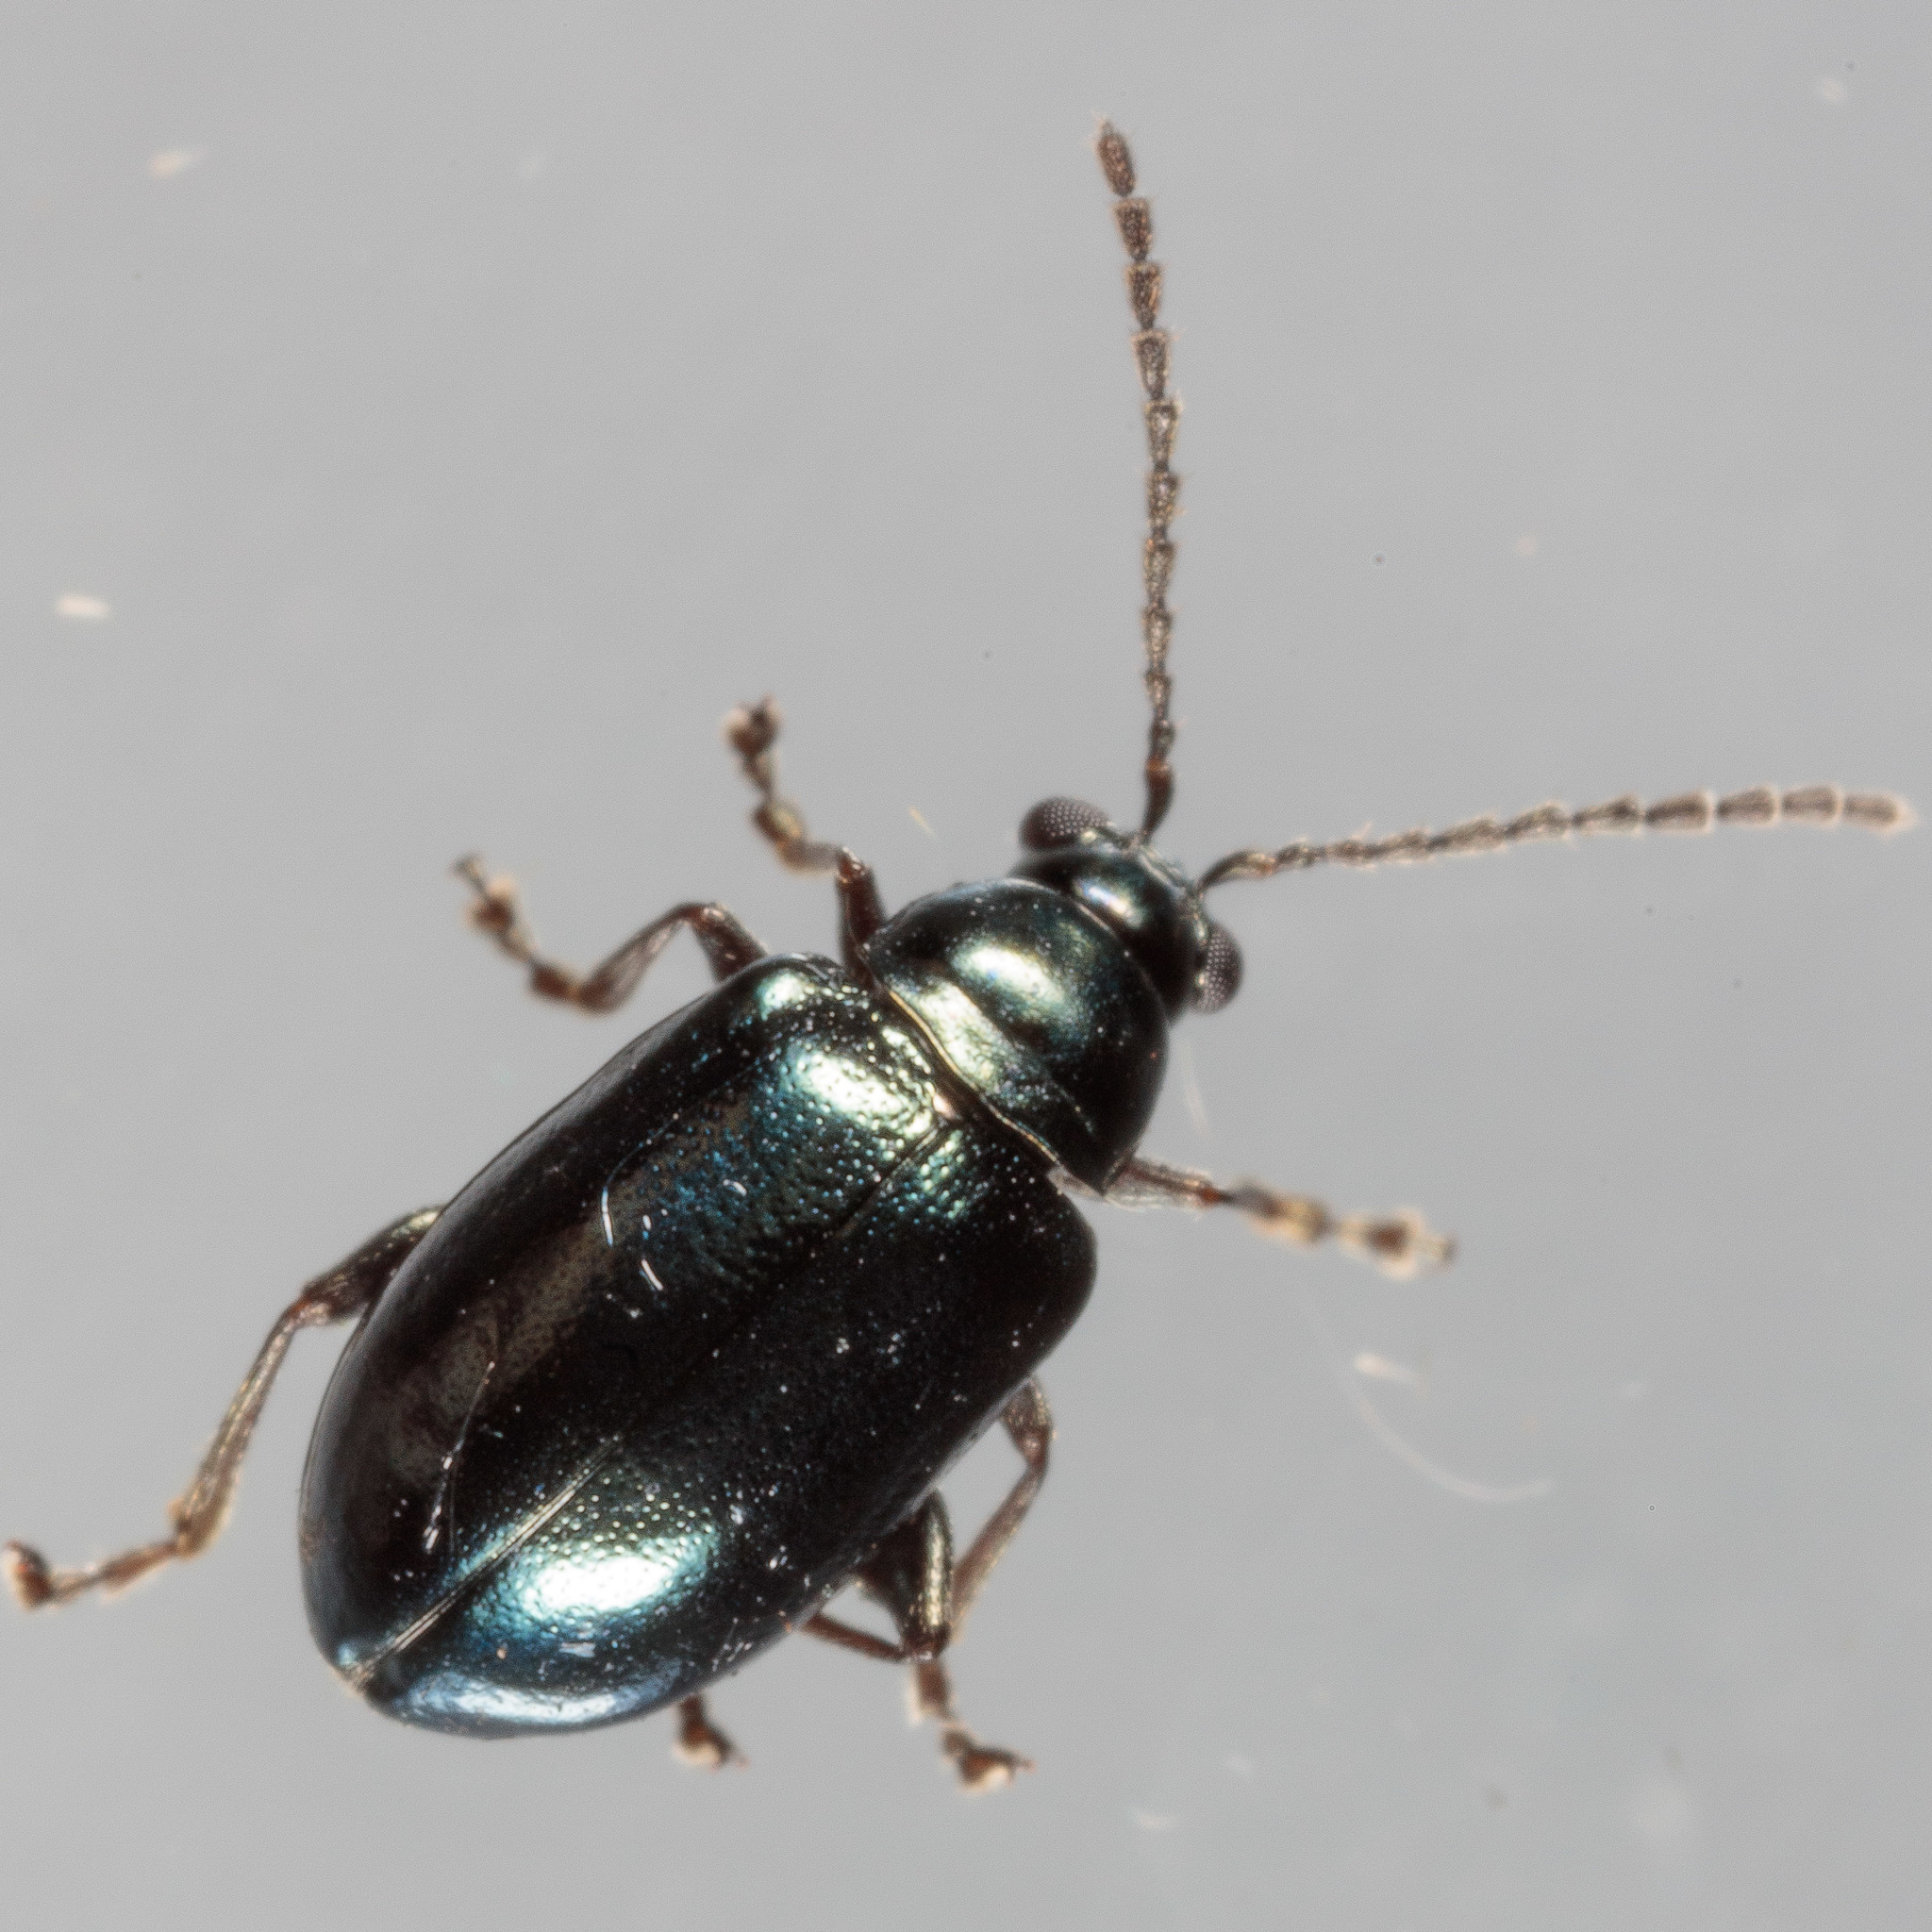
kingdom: Animalia
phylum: Arthropoda
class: Insecta
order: Coleoptera
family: Chrysomelidae
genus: Altica
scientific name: Altica litigata
